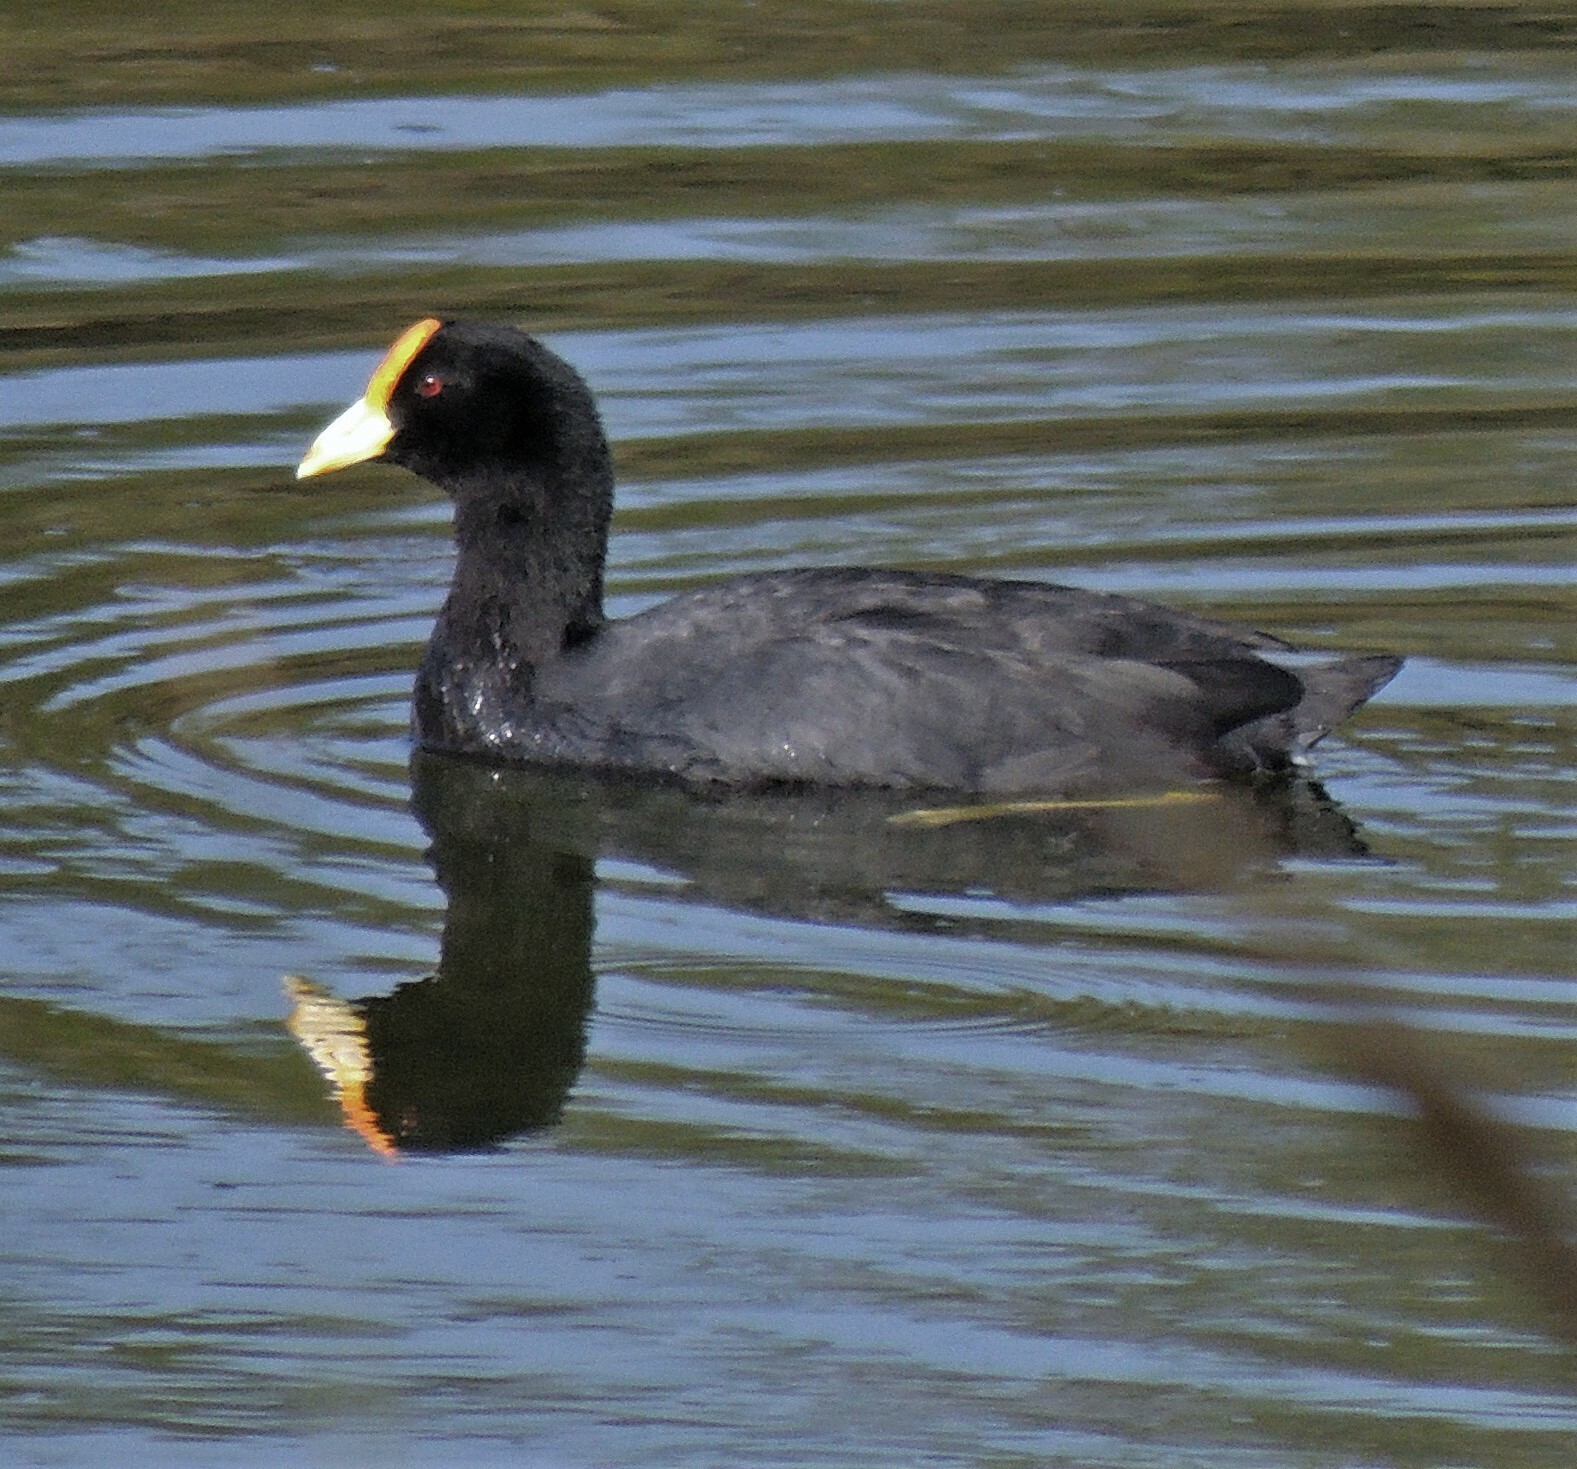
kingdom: Animalia
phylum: Chordata
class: Aves
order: Gruiformes
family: Rallidae
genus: Fulica
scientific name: Fulica leucoptera
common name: White-winged coot
